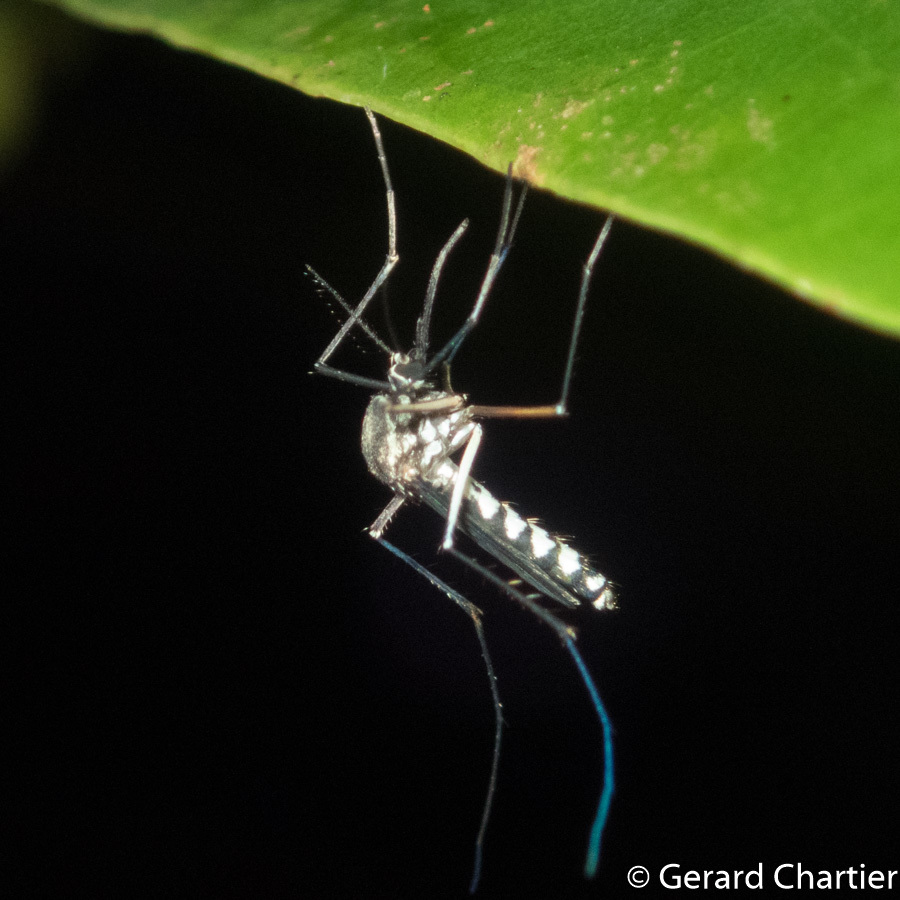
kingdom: Animalia
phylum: Arthropoda
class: Insecta
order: Diptera
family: Culicidae
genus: Armigeres
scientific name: Armigeres subalbatus
